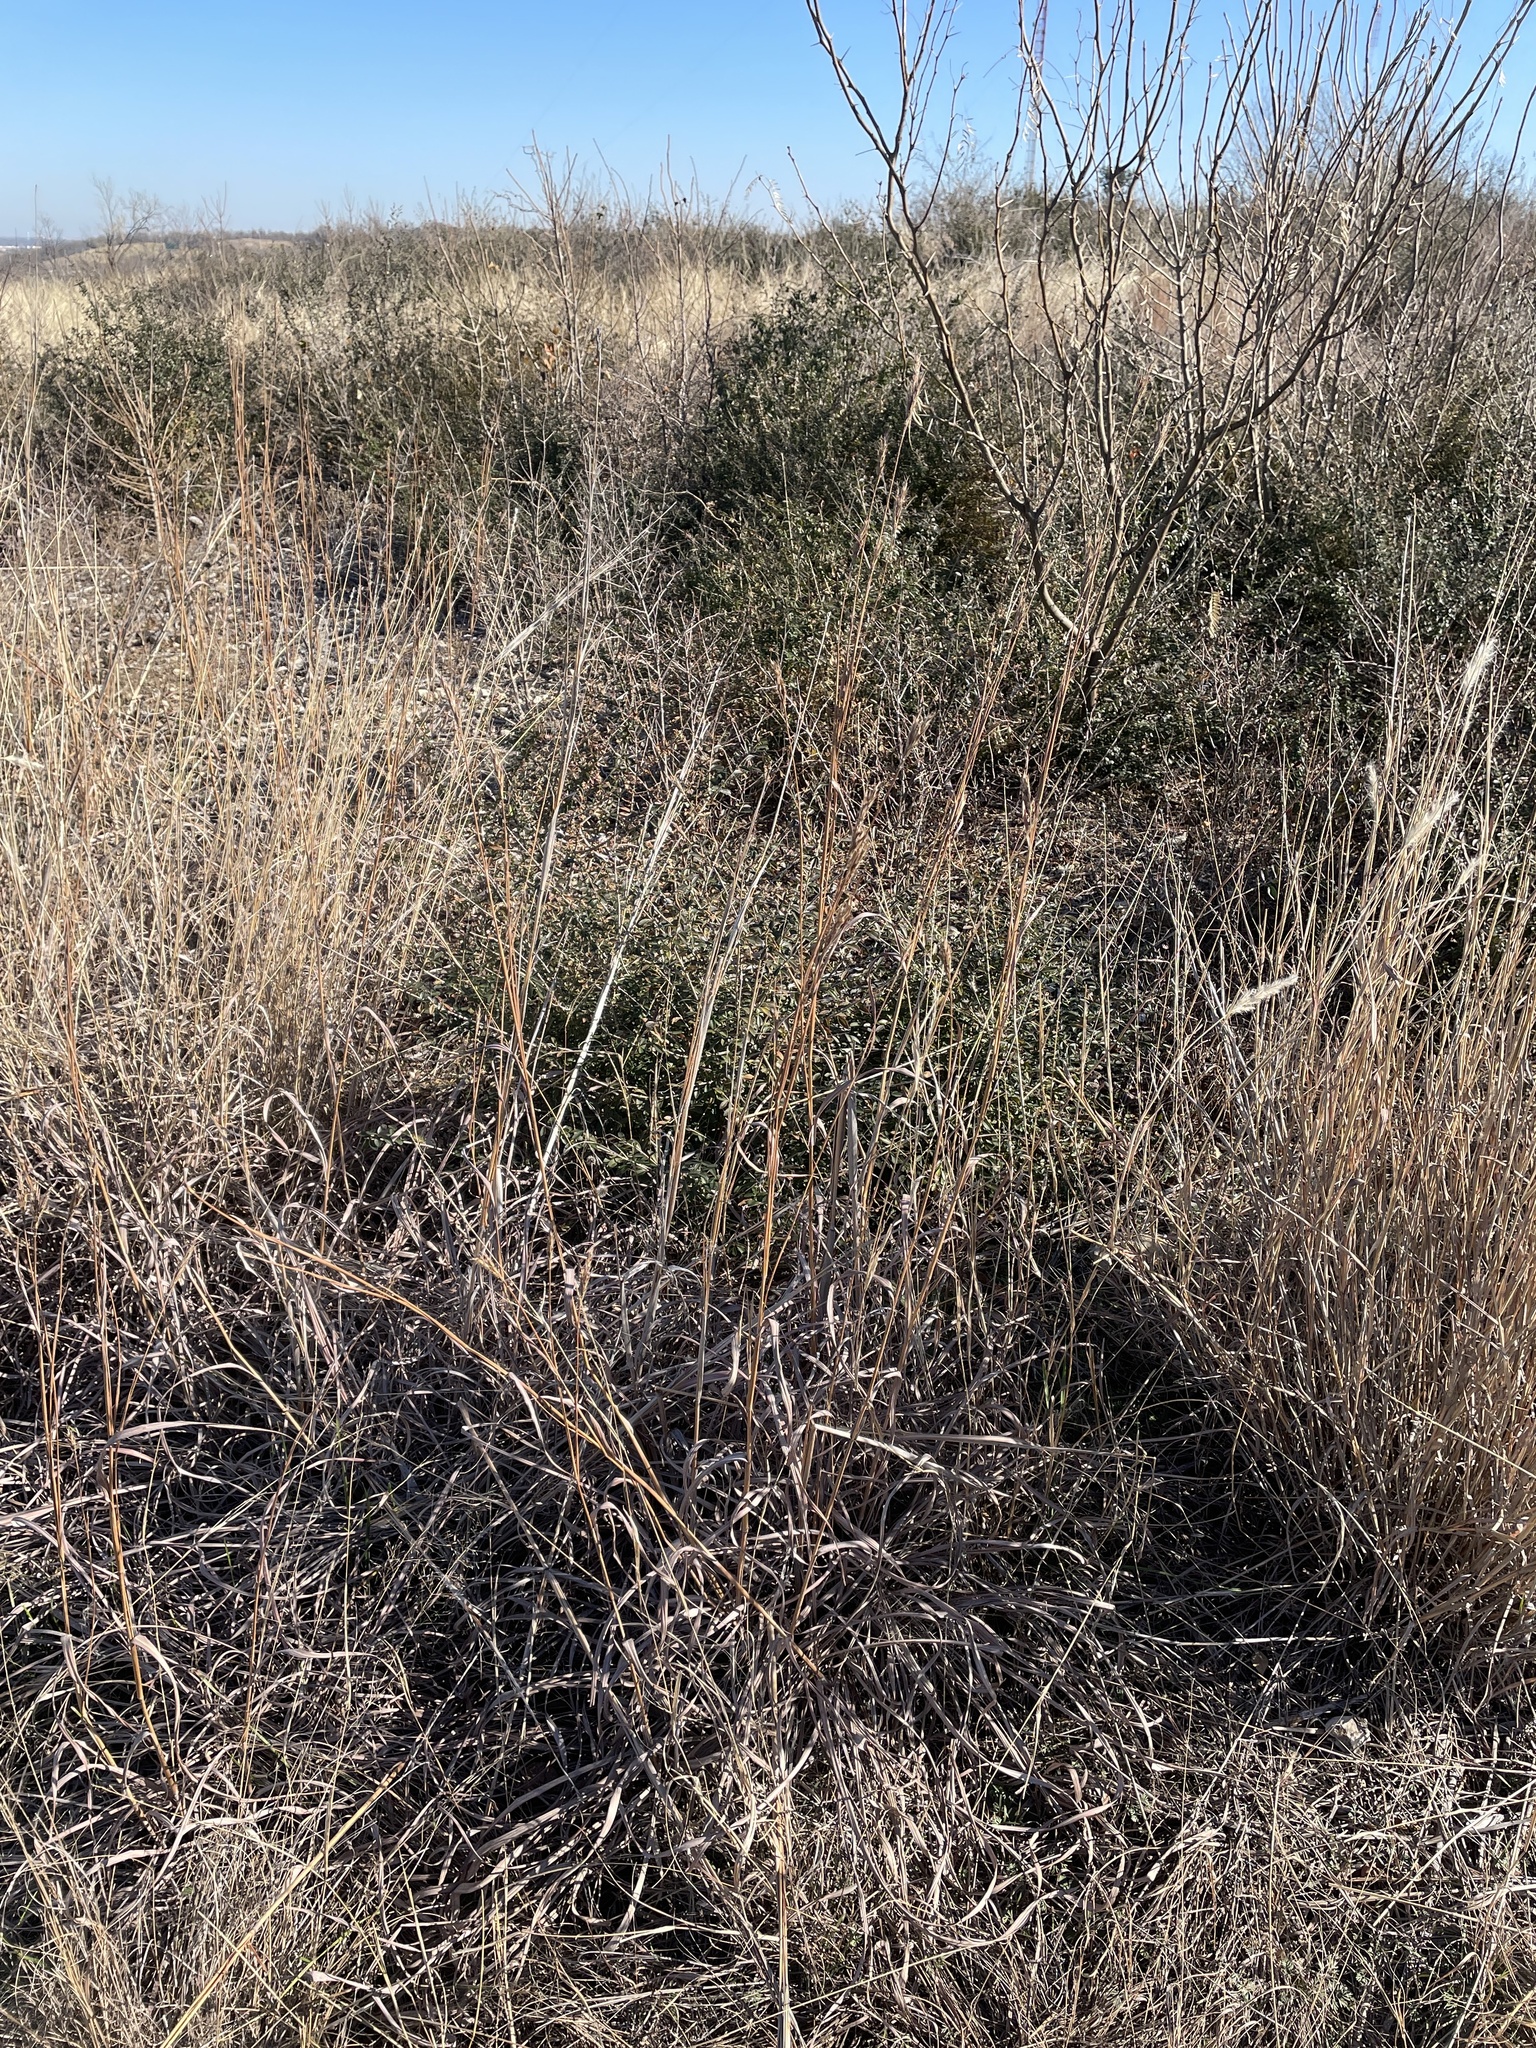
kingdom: Plantae
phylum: Tracheophyta
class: Liliopsida
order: Poales
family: Poaceae
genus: Andropogon
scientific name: Andropogon gerardi
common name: Big bluestem
